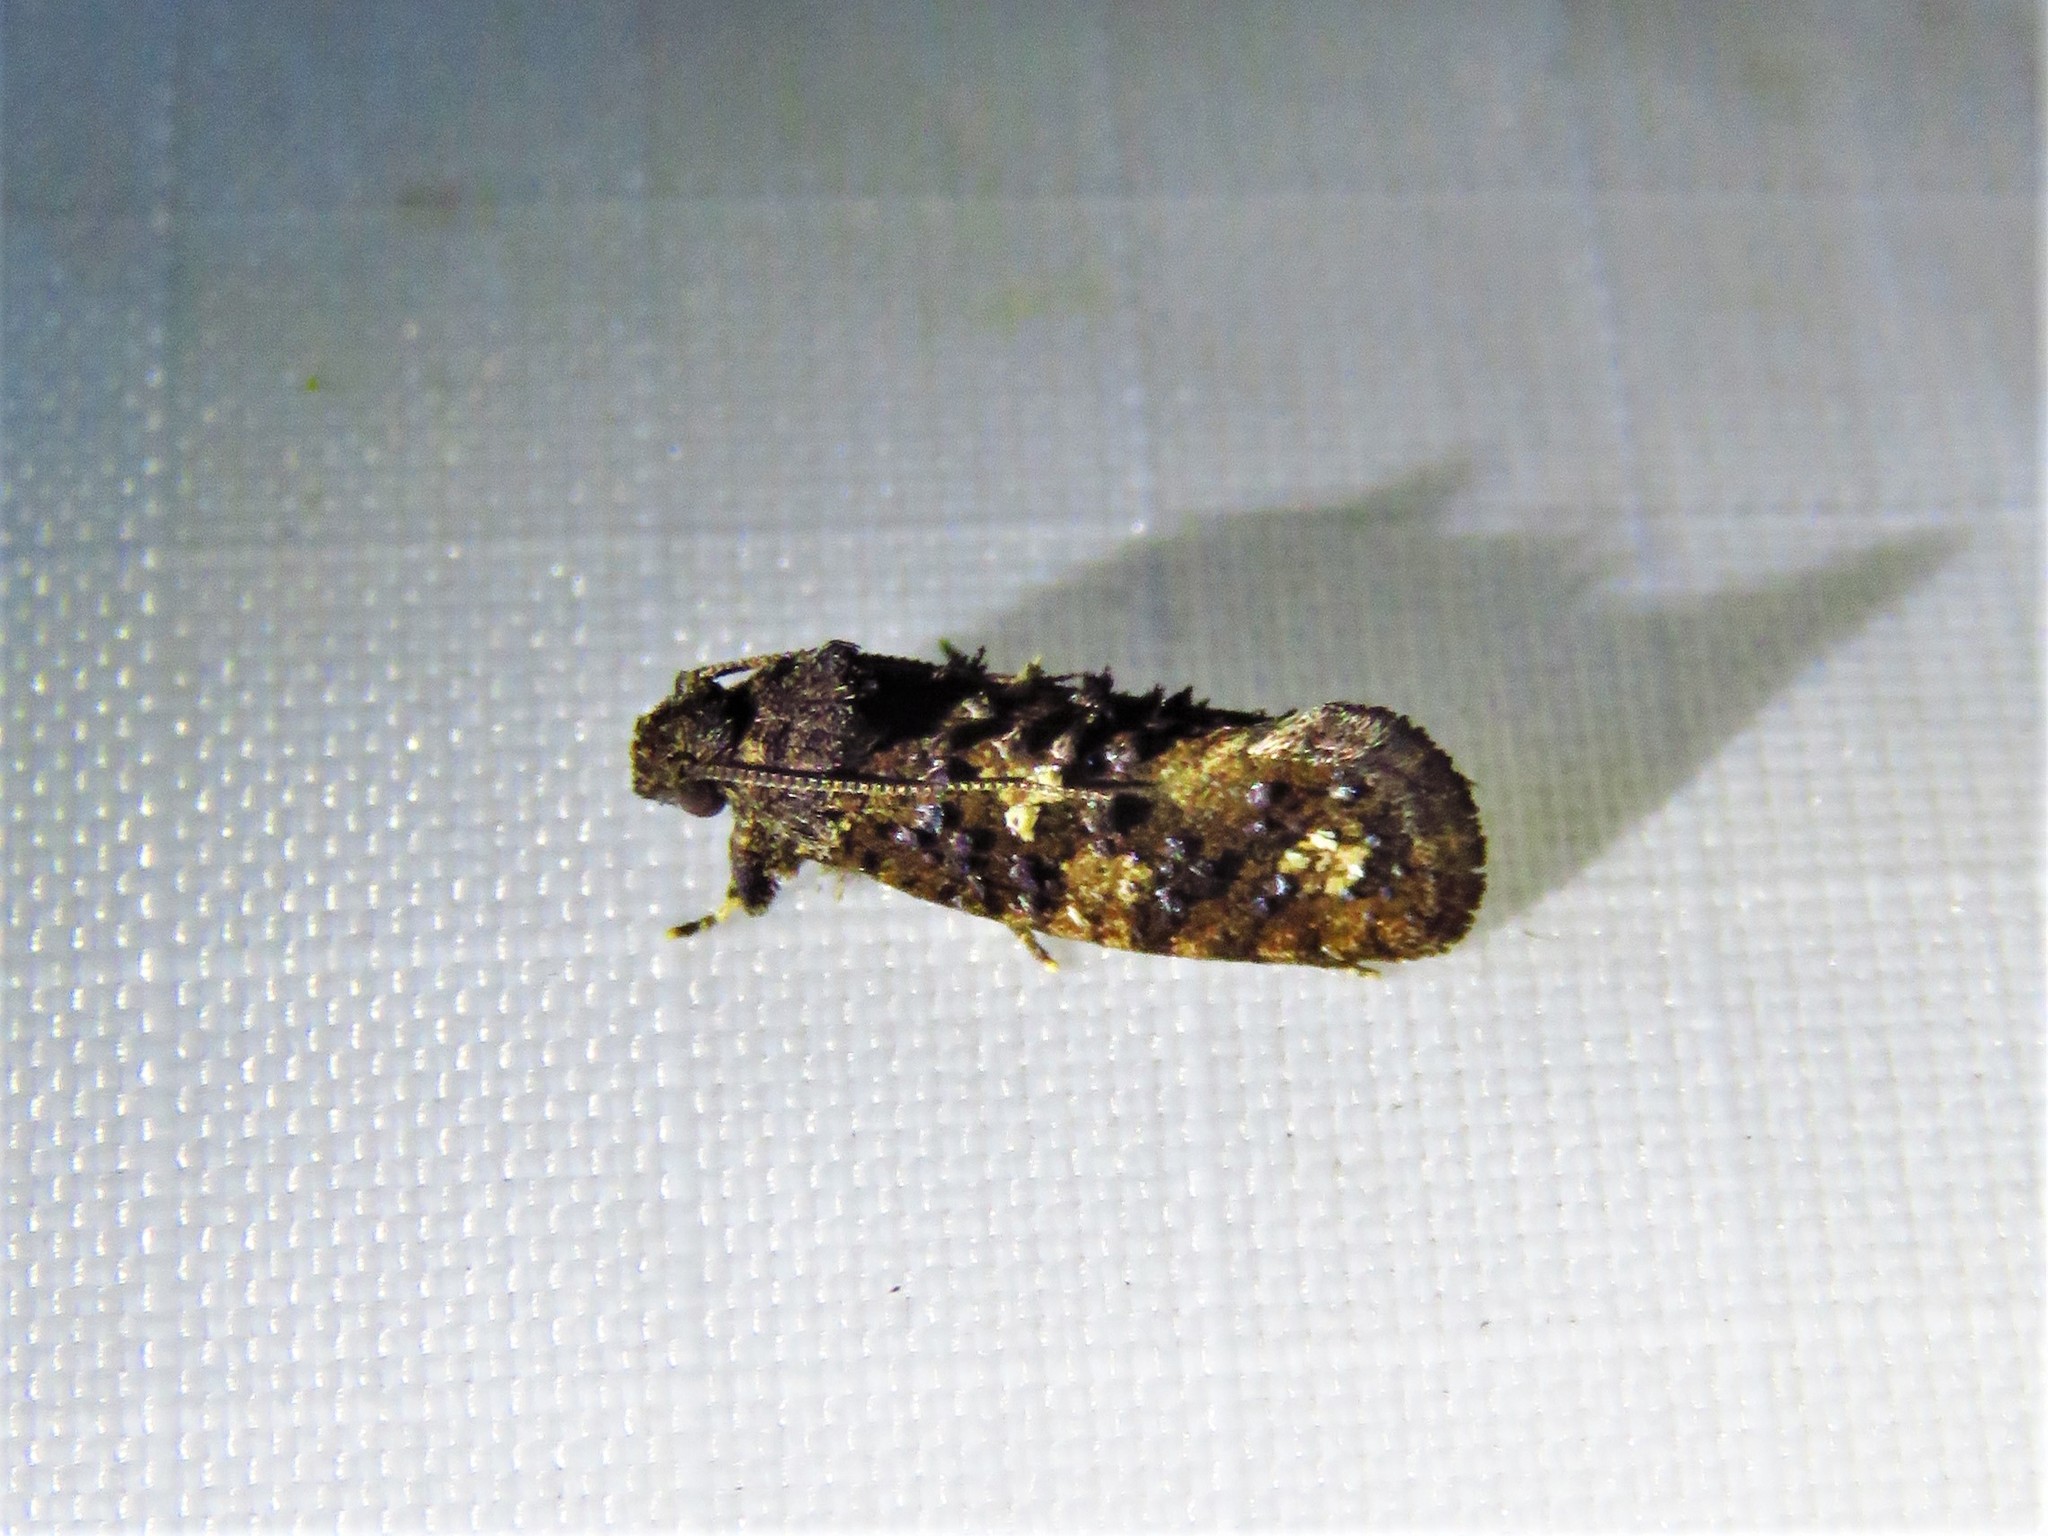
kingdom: Animalia
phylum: Arthropoda
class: Insecta
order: Lepidoptera
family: Tineidae
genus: Acrolophus
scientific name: Acrolophus cressoni
